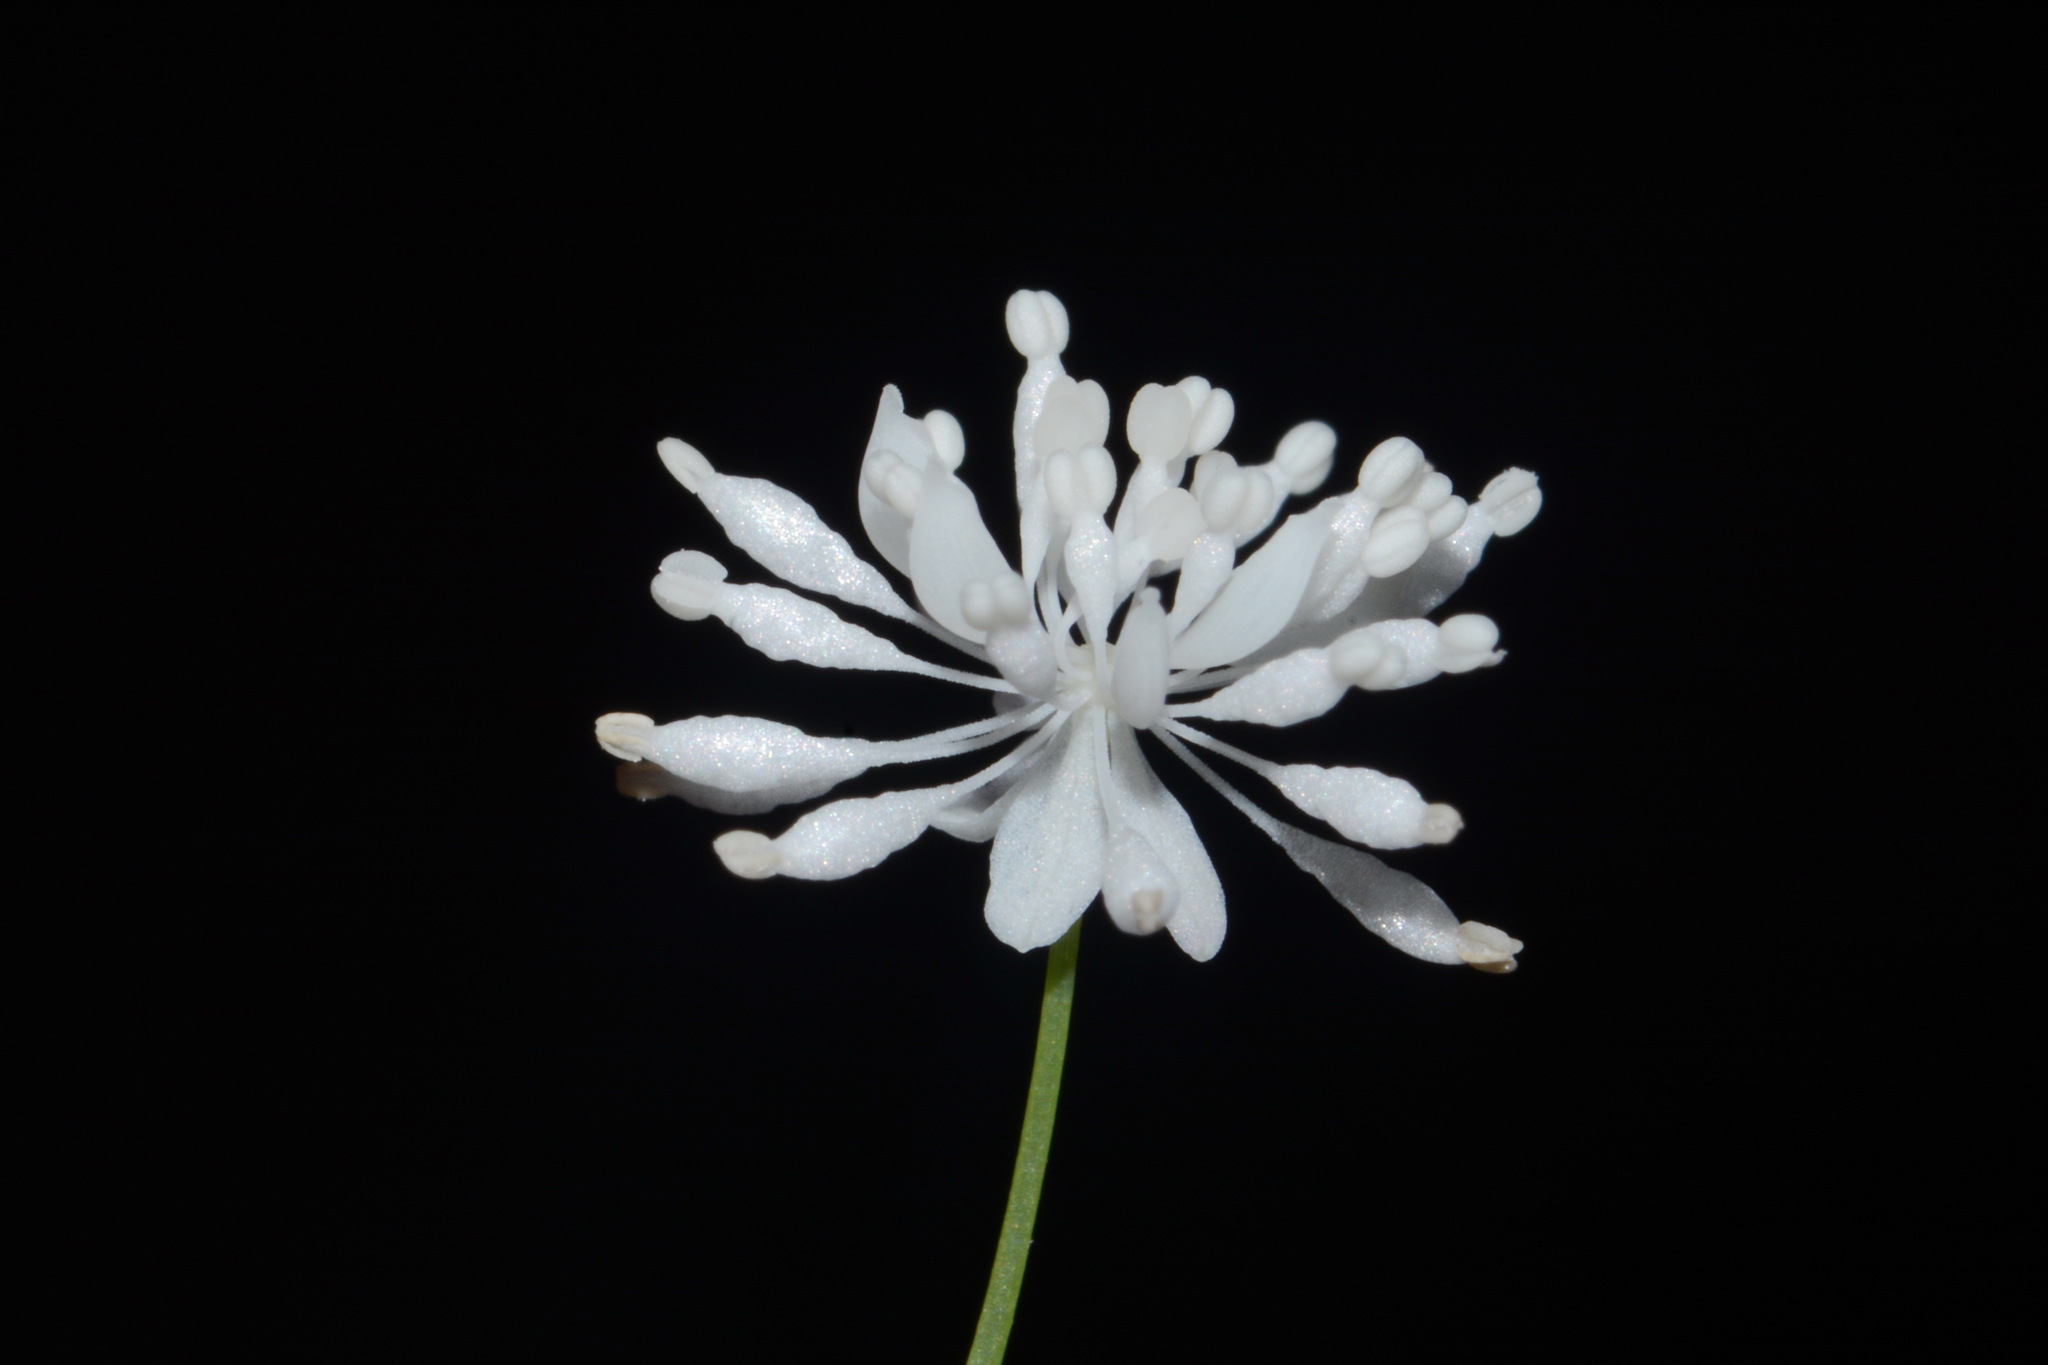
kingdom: Plantae
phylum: Tracheophyta
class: Magnoliopsida
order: Ranunculales
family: Ranunculaceae
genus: Thalictrum
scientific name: Thalictrum mirabile
